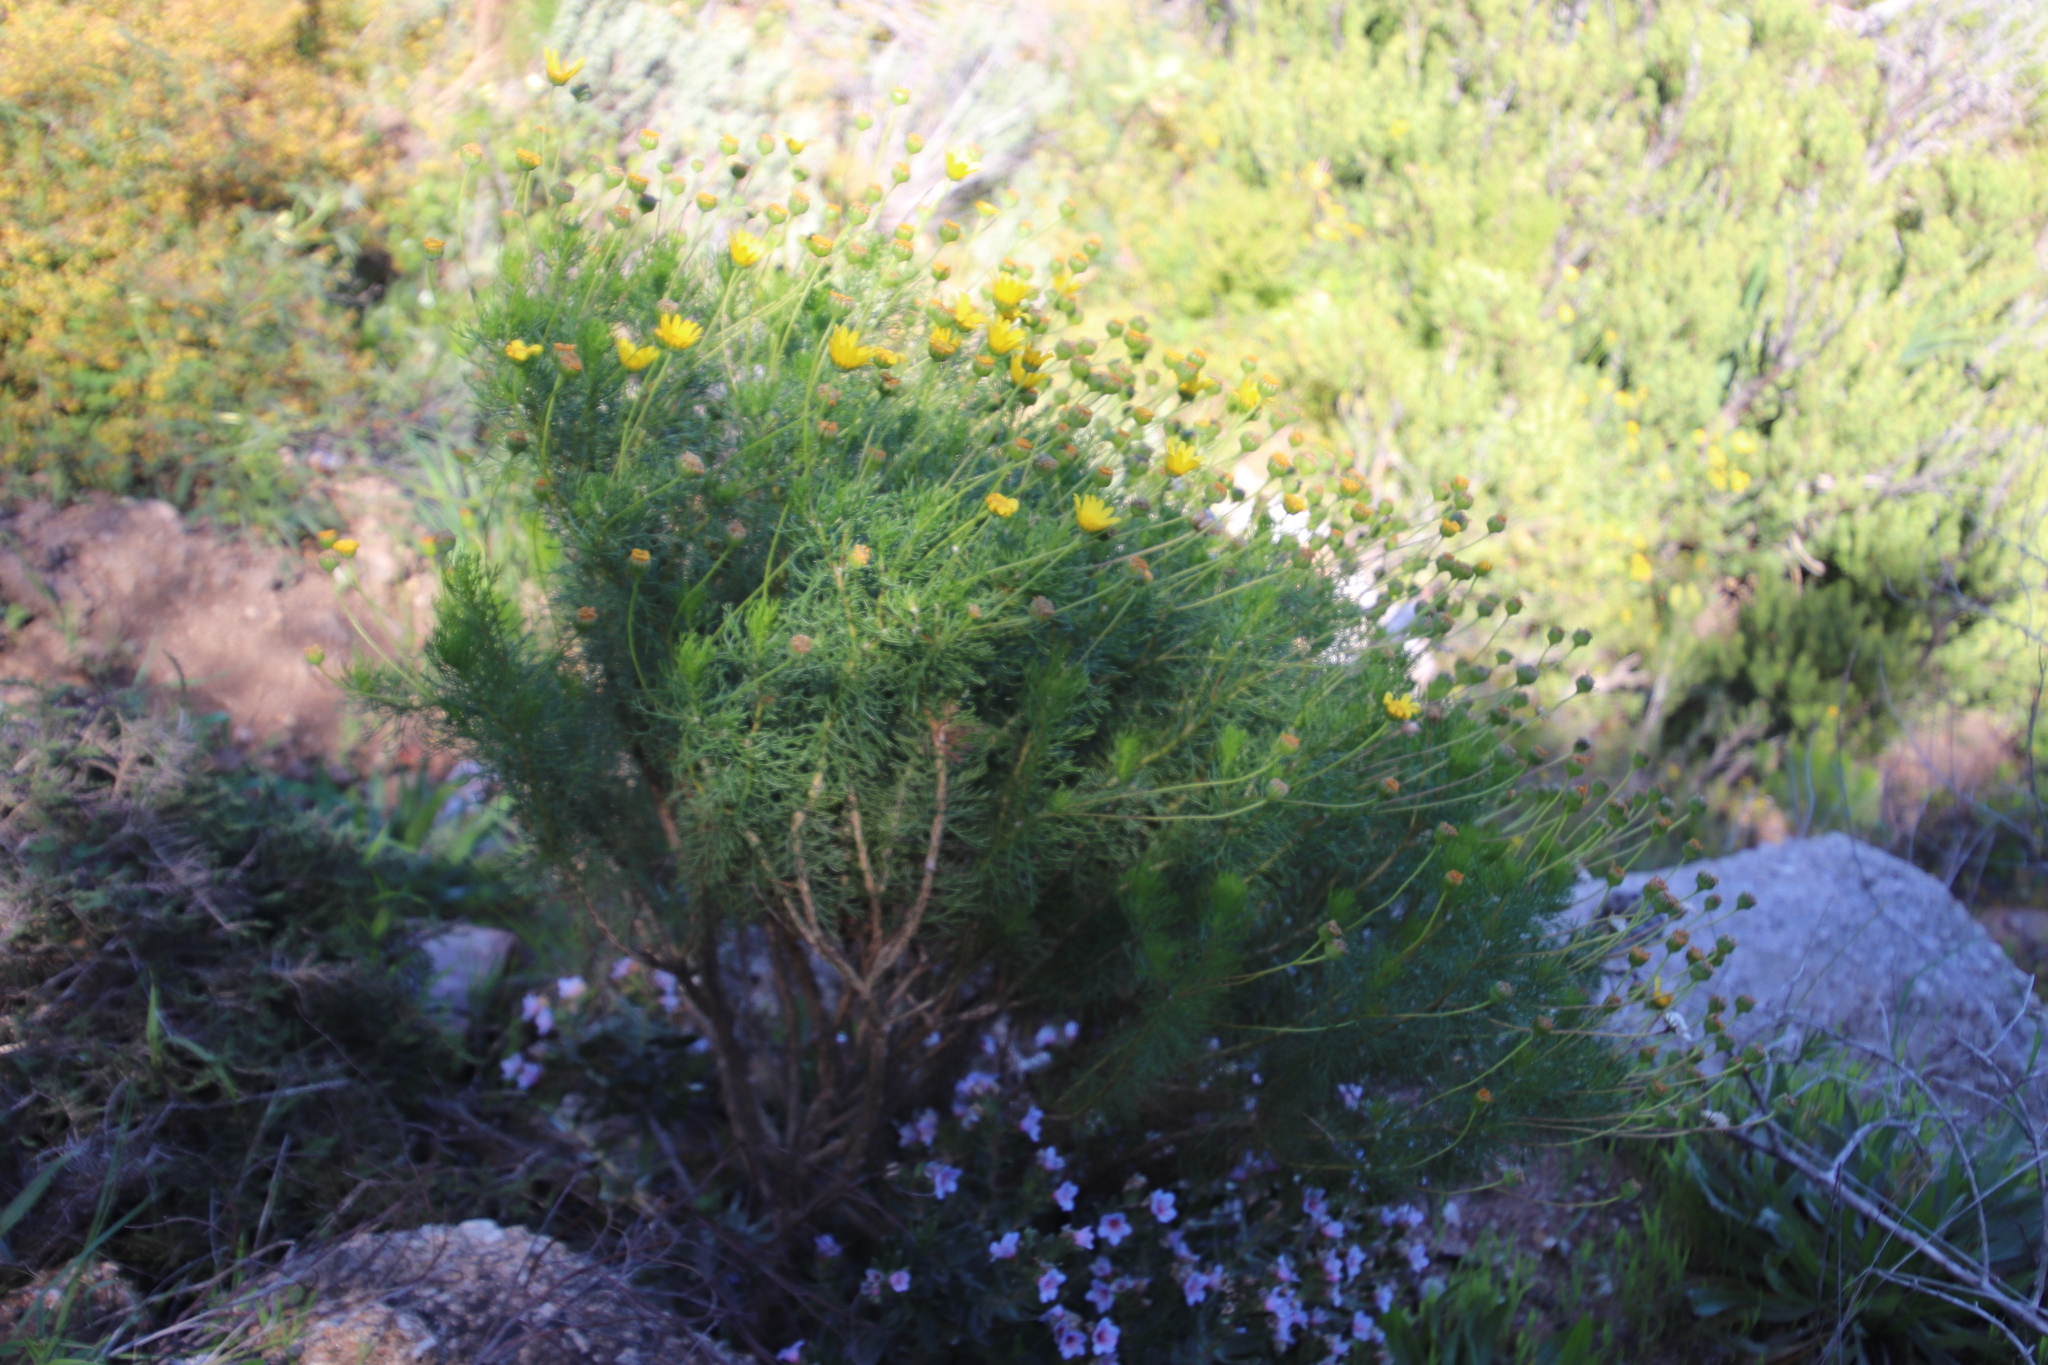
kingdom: Plantae
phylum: Tracheophyta
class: Magnoliopsida
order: Asterales
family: Asteraceae
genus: Euryops
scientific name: Euryops abrotanifolius
